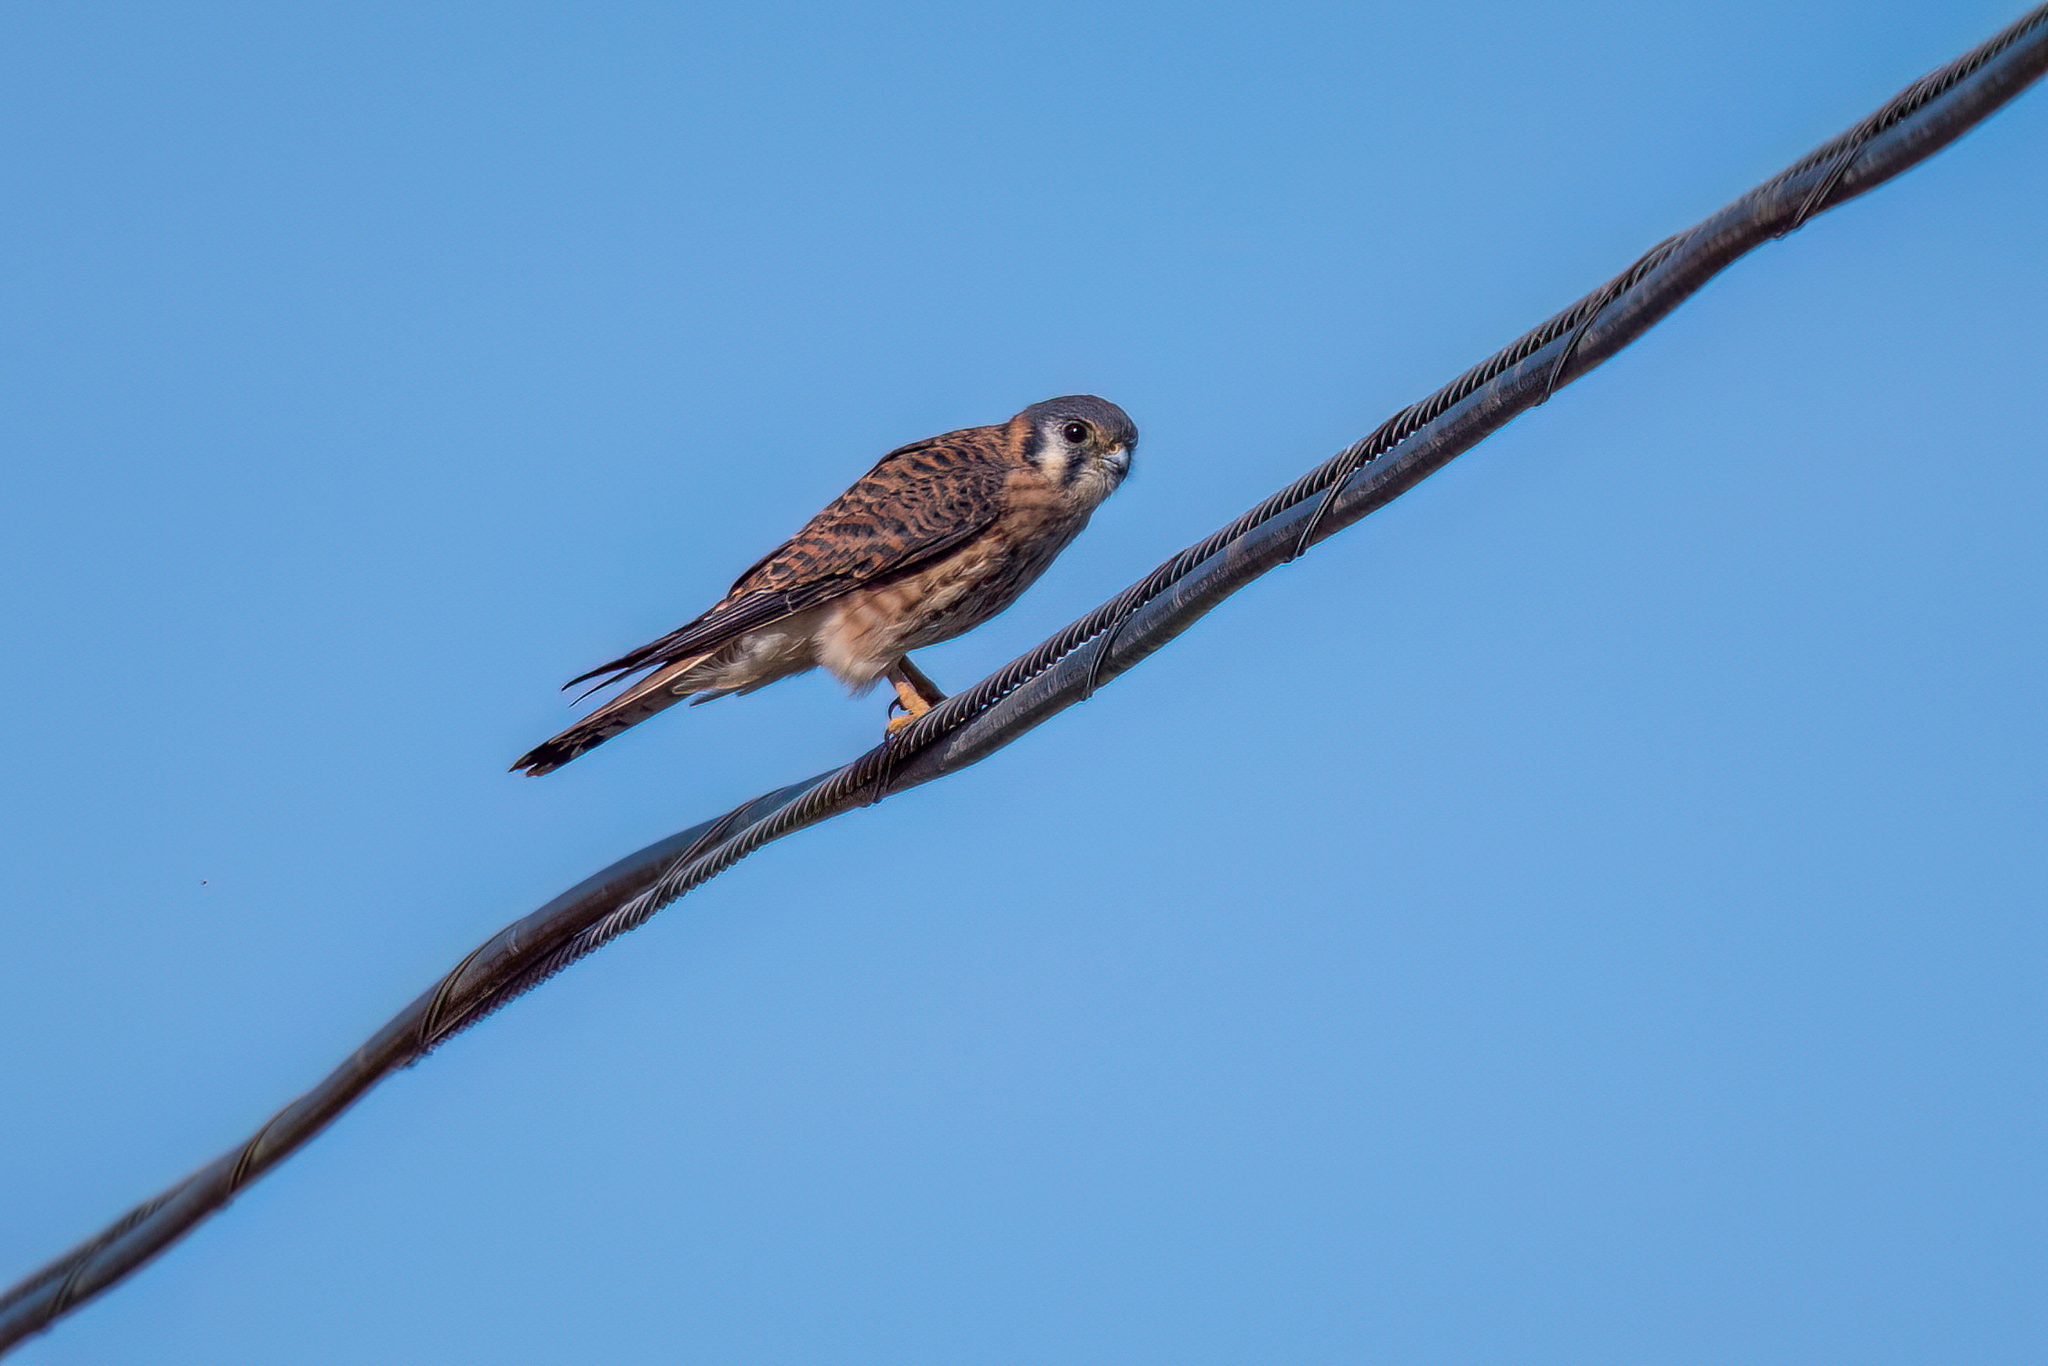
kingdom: Animalia
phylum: Chordata
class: Aves
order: Falconiformes
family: Falconidae
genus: Falco
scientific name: Falco sparverius
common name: American kestrel
